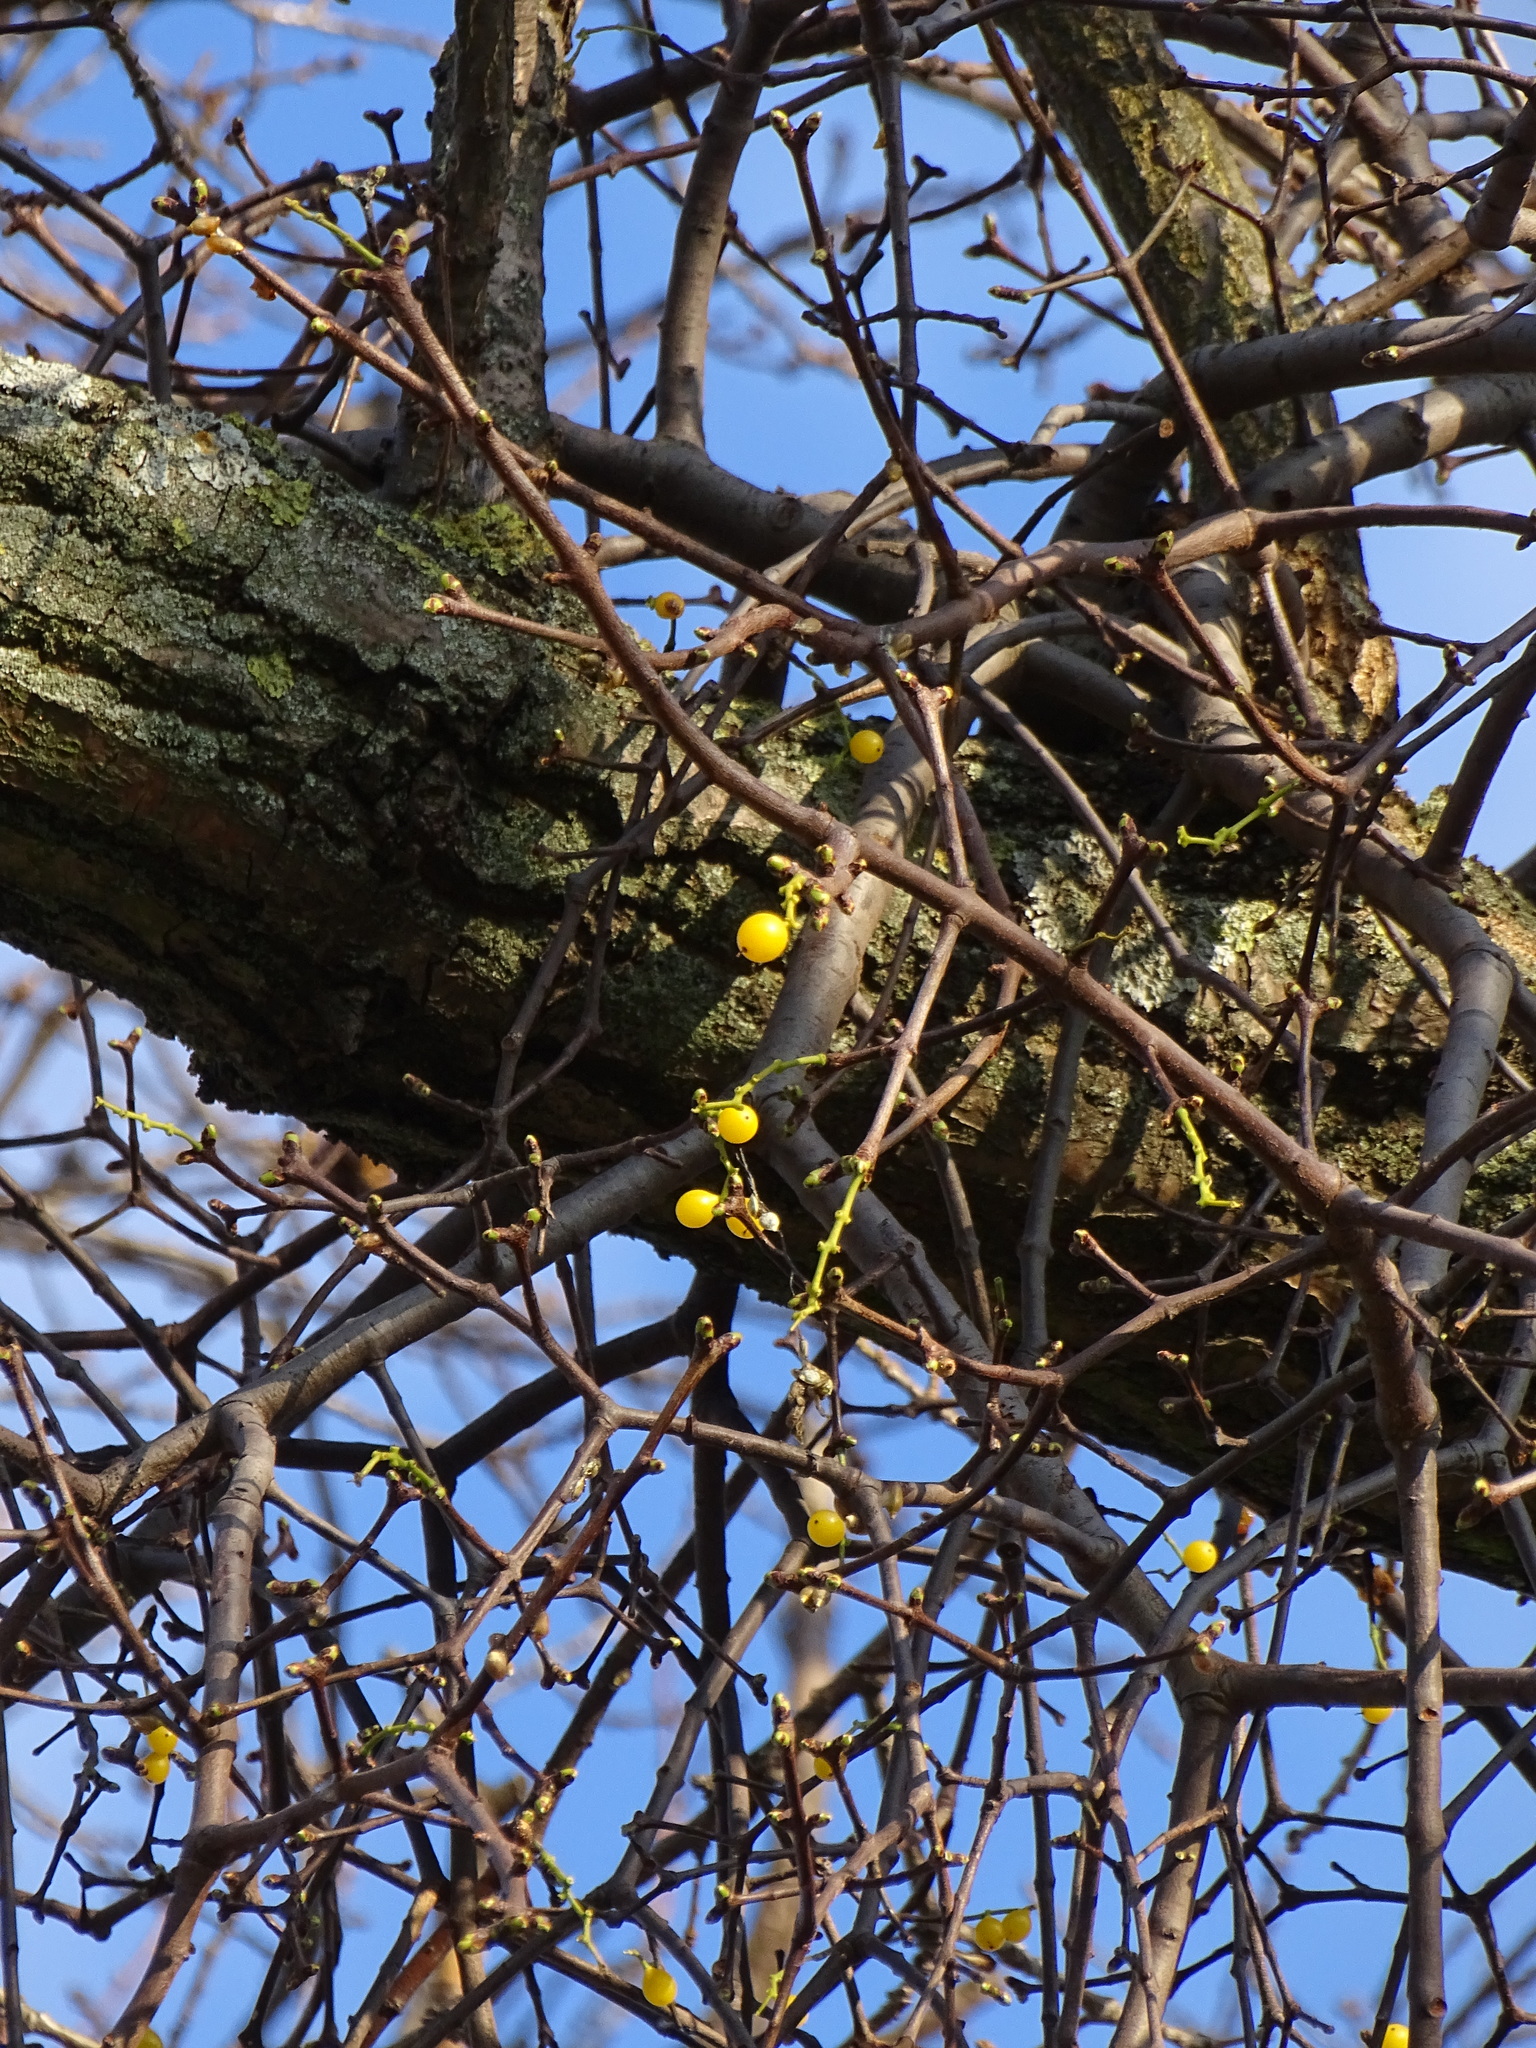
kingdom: Plantae
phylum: Tracheophyta
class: Magnoliopsida
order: Santalales
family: Loranthaceae
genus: Loranthus
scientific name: Loranthus europaeus
